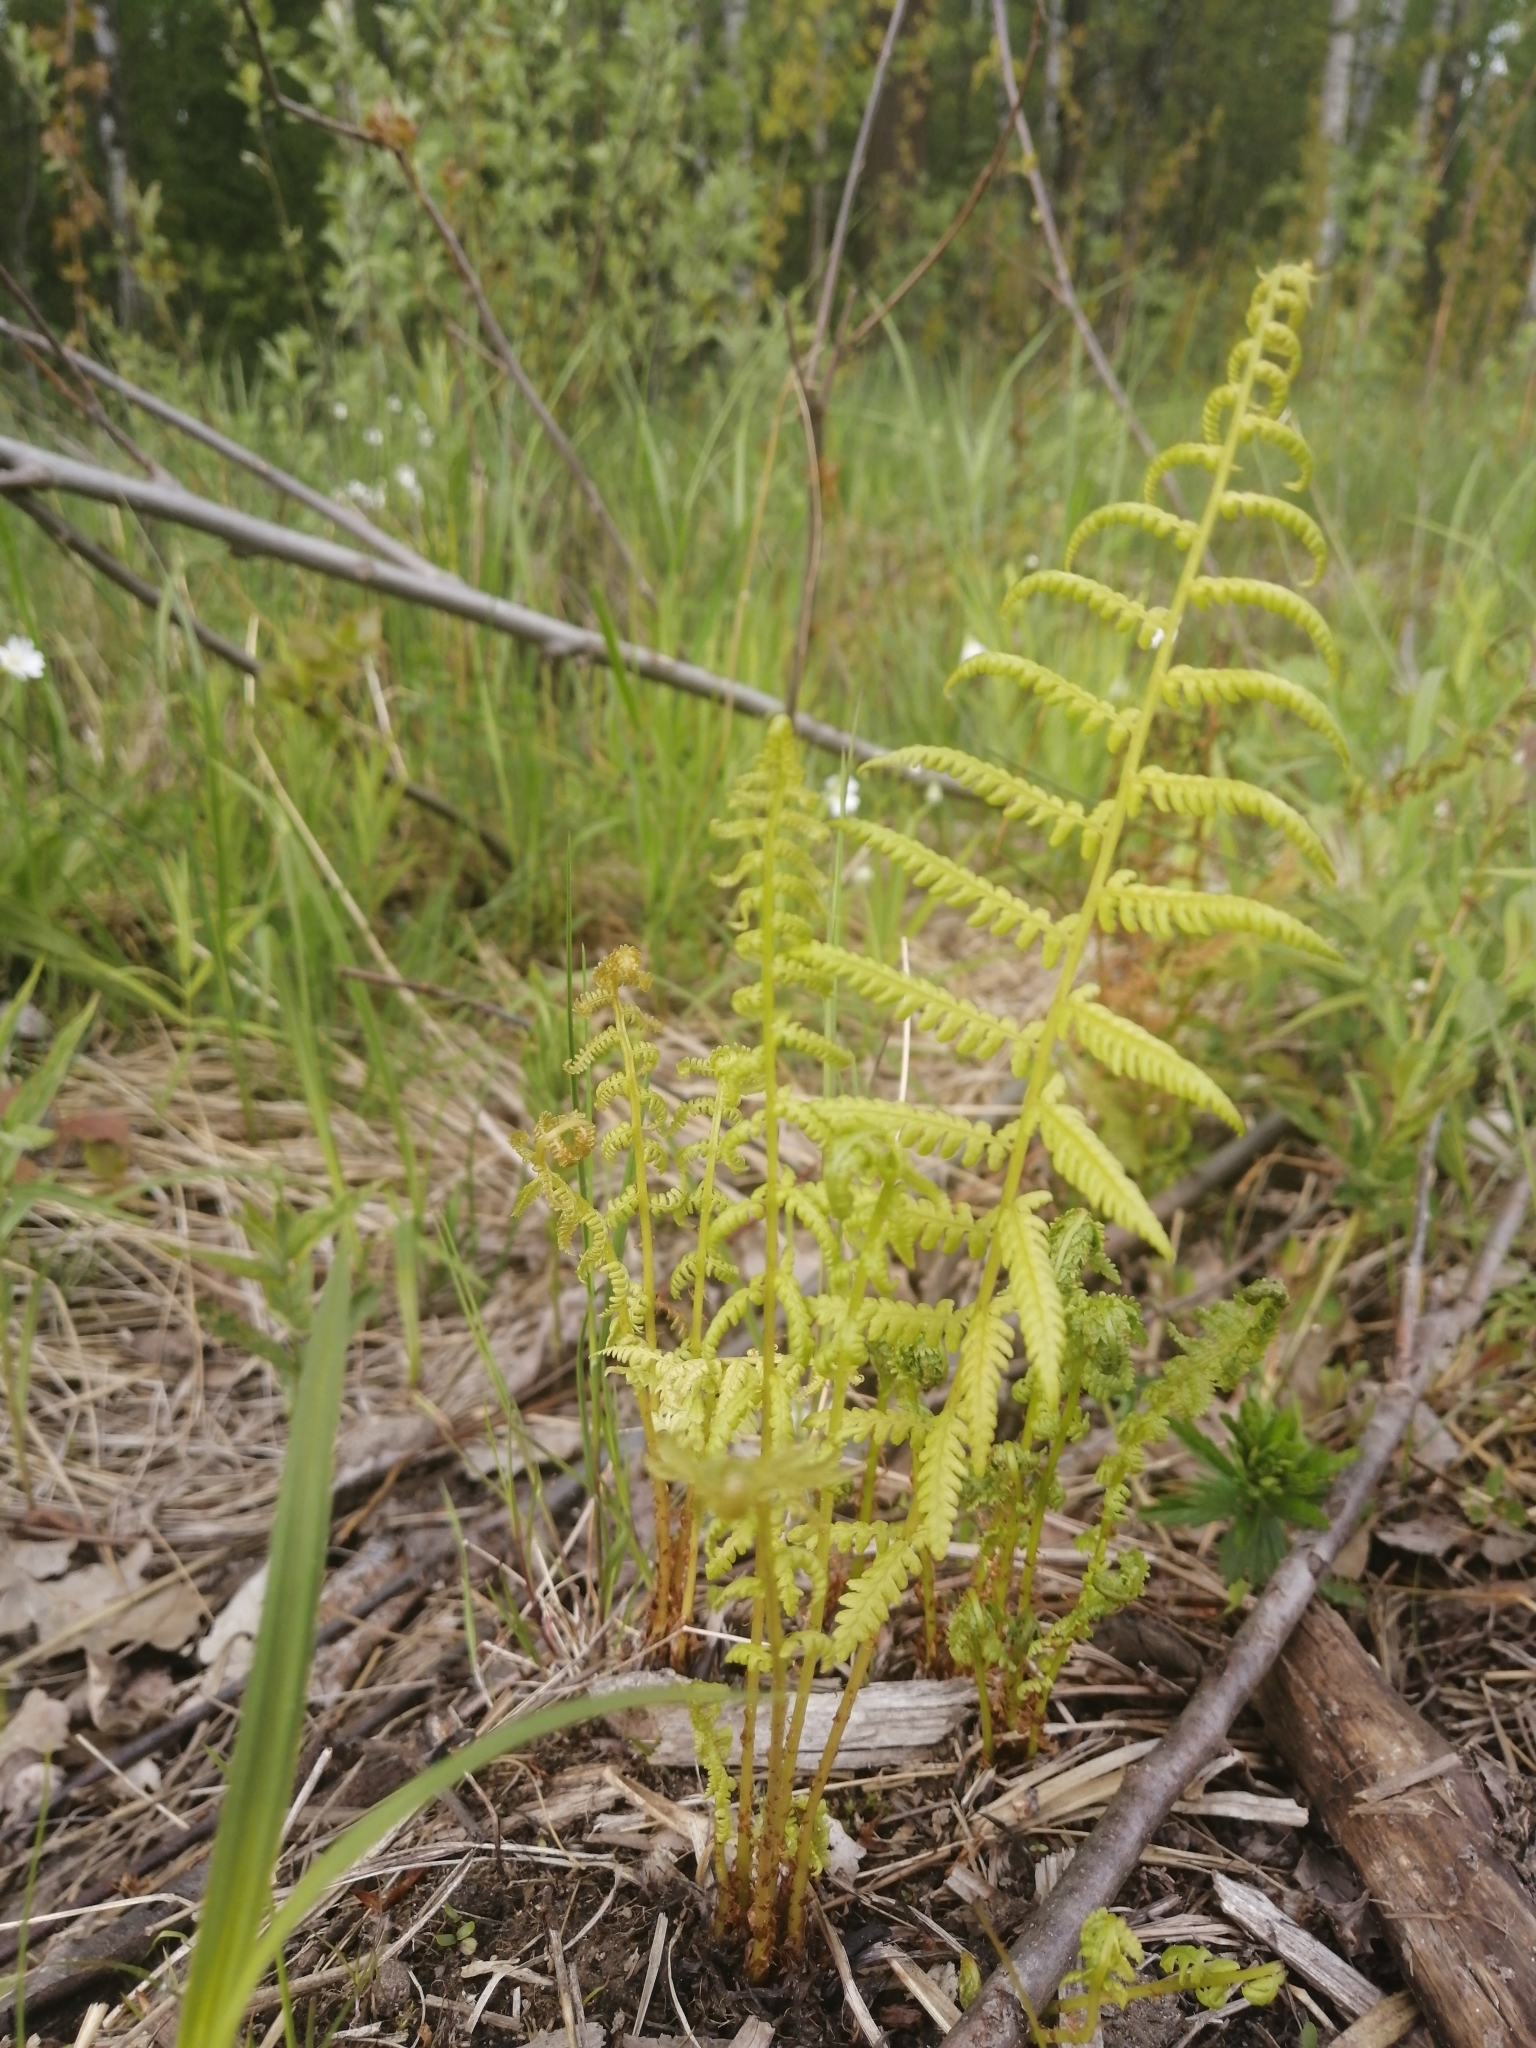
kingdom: Plantae
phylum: Tracheophyta
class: Polypodiopsida
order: Polypodiales
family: Athyriaceae
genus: Athyrium
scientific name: Athyrium filix-femina
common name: Lady fern
